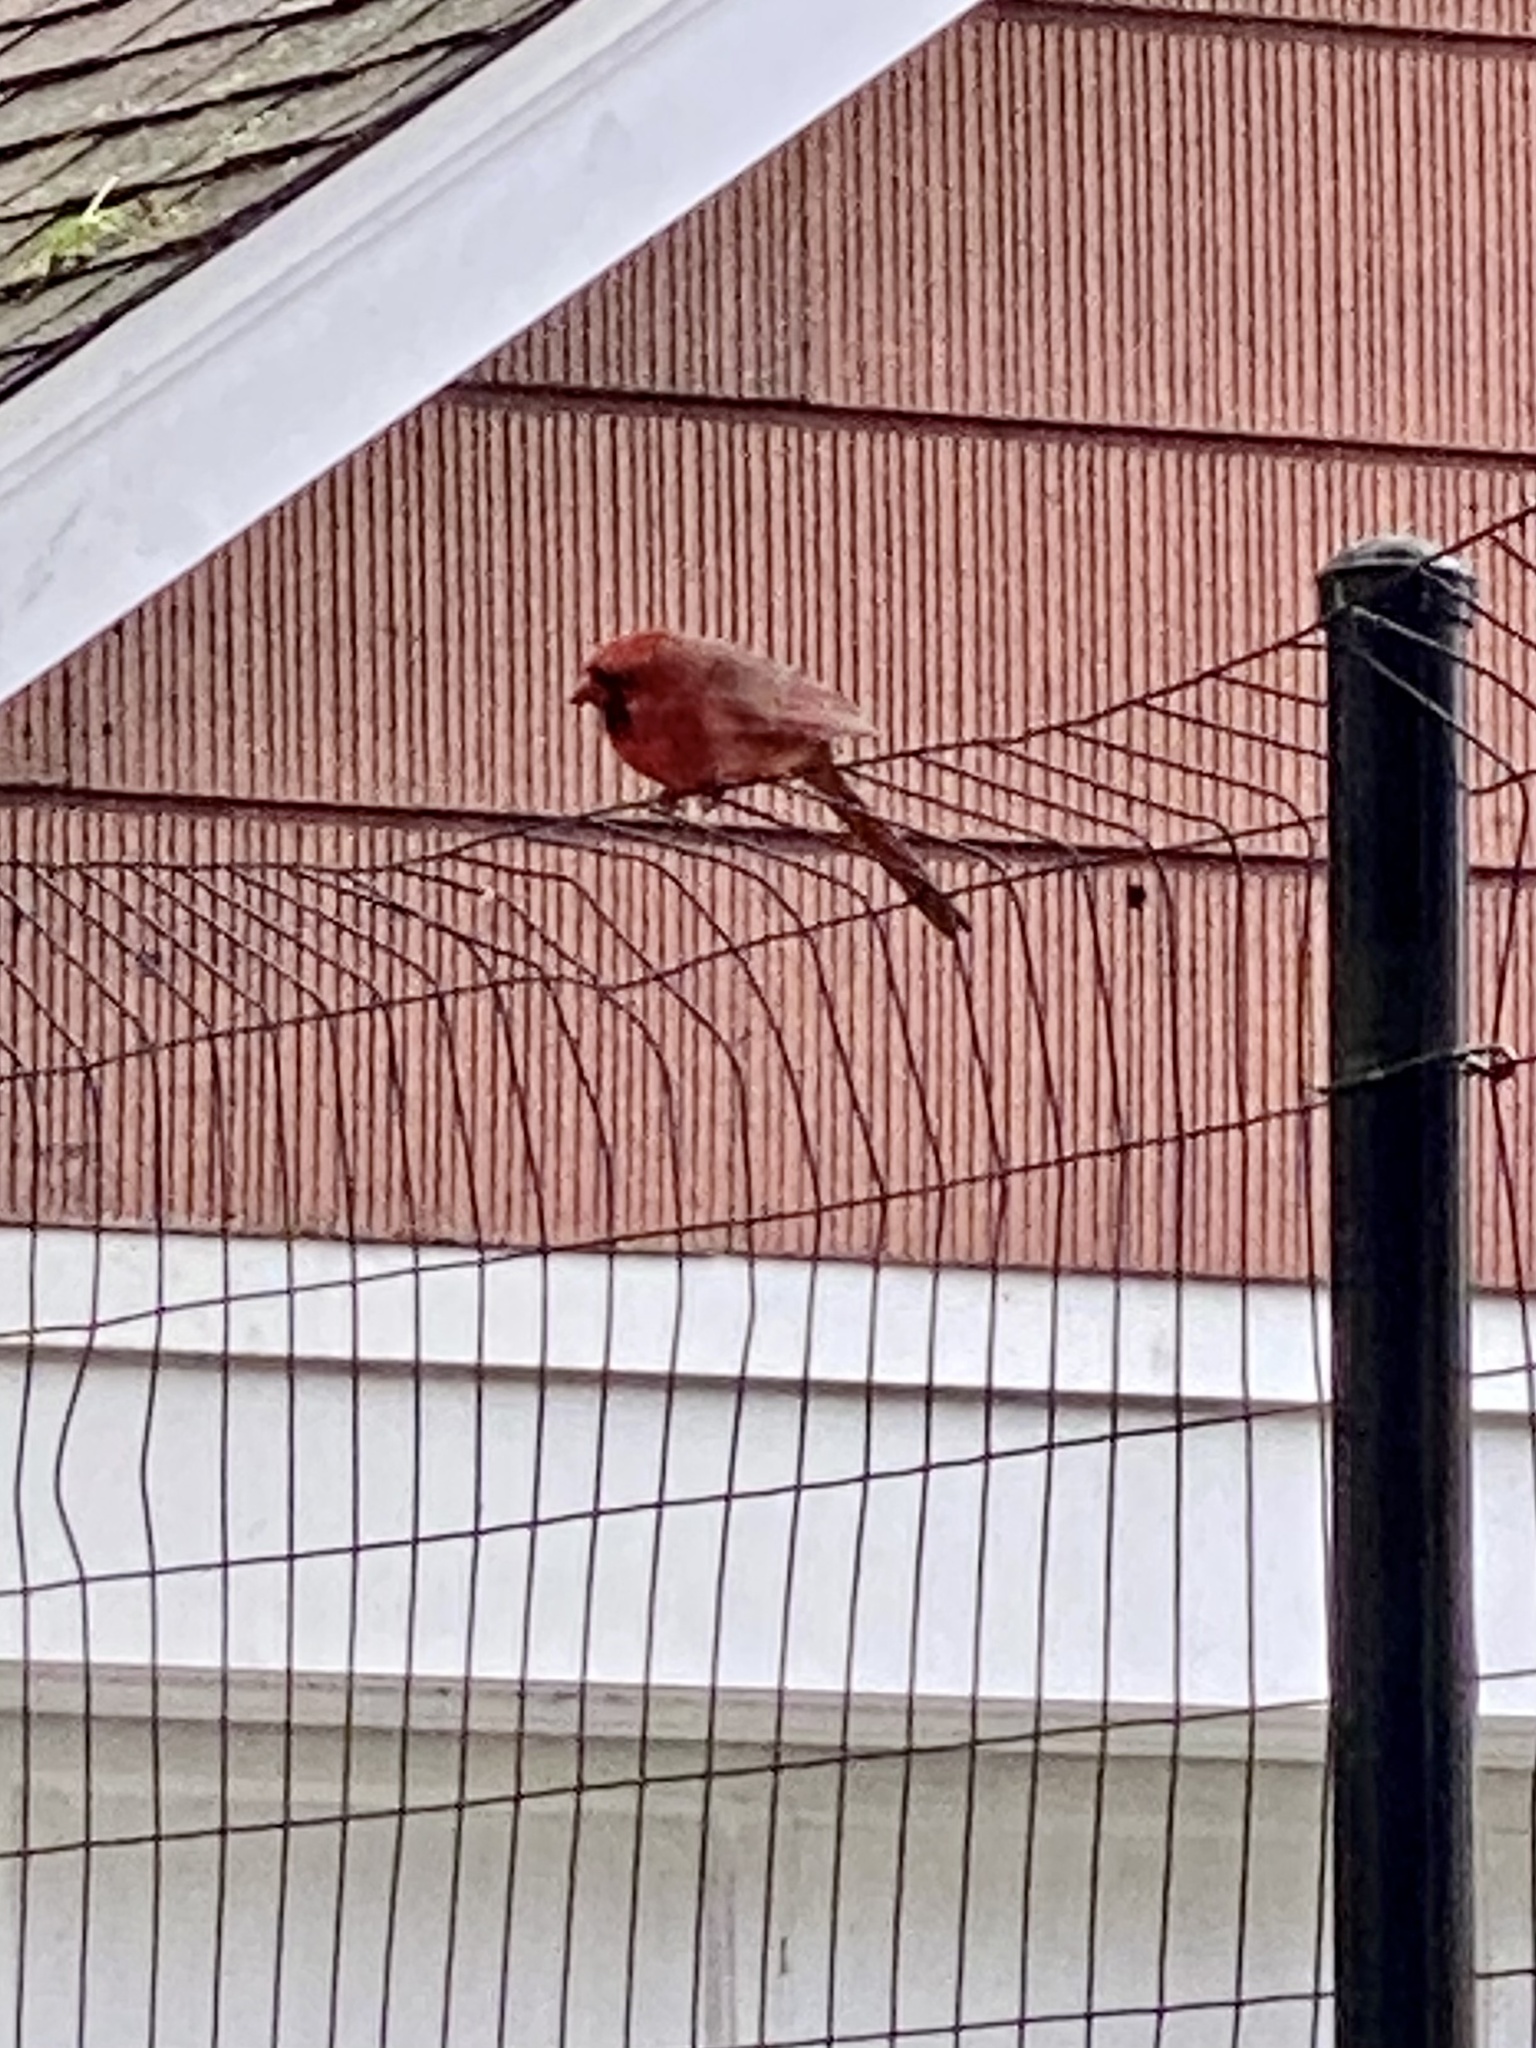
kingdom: Animalia
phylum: Chordata
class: Aves
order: Passeriformes
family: Cardinalidae
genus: Cardinalis
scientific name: Cardinalis cardinalis
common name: Northern cardinal
